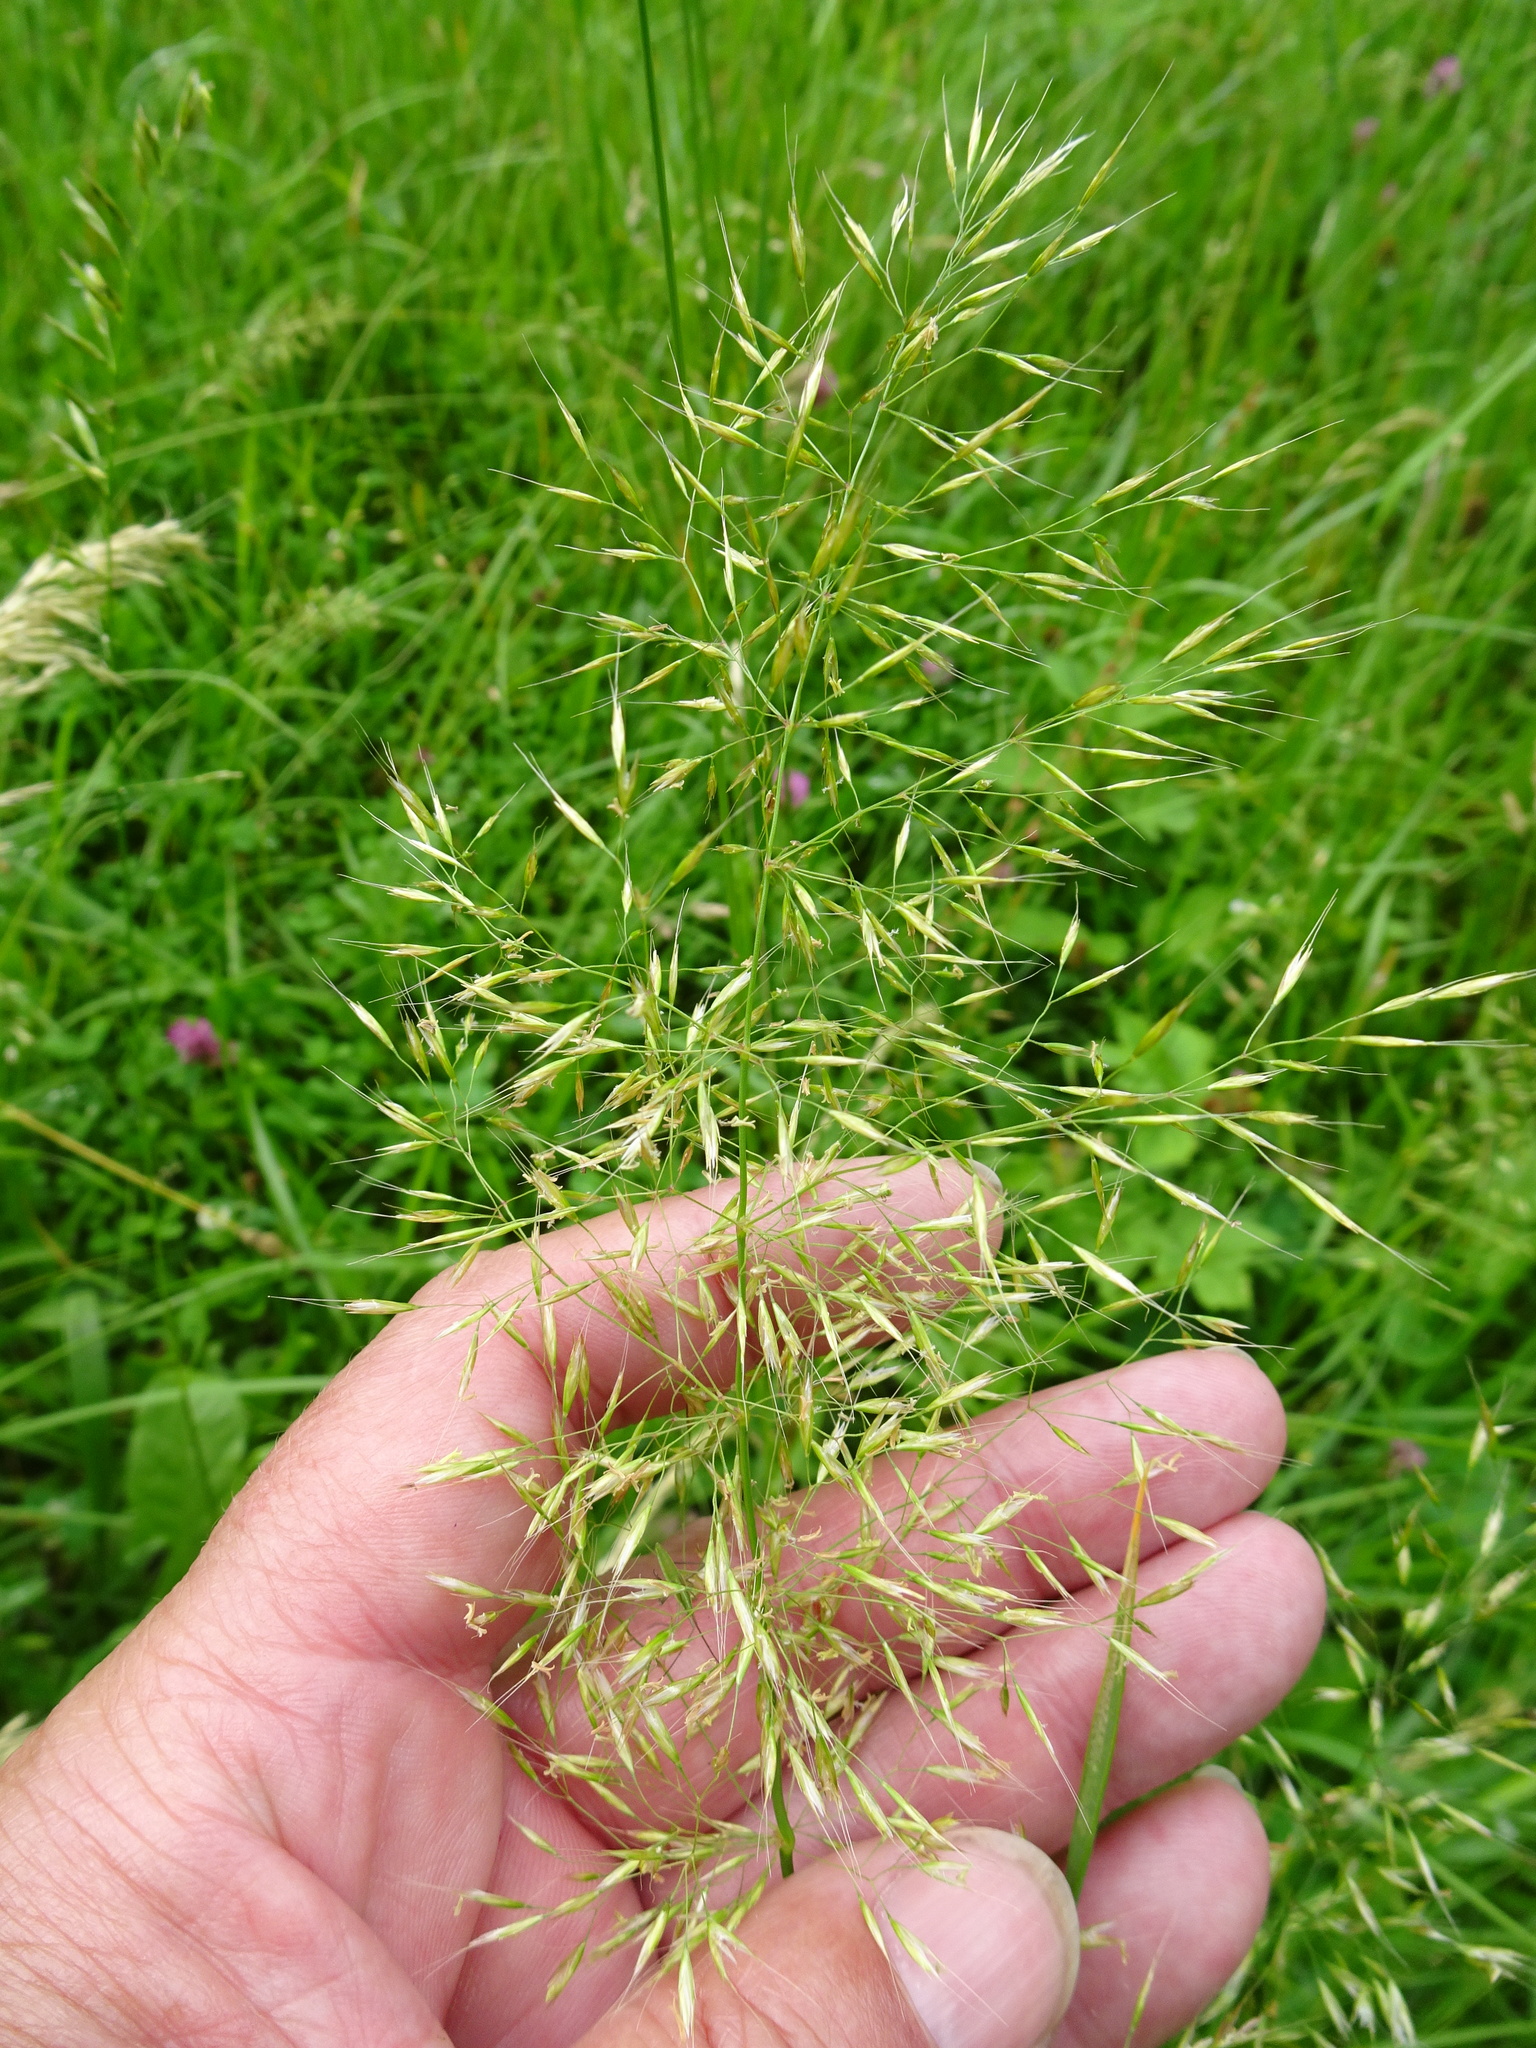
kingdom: Plantae
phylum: Tracheophyta
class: Liliopsida
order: Poales
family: Poaceae
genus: Trisetum
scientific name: Trisetum flavescens
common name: Yellow oat-grass
